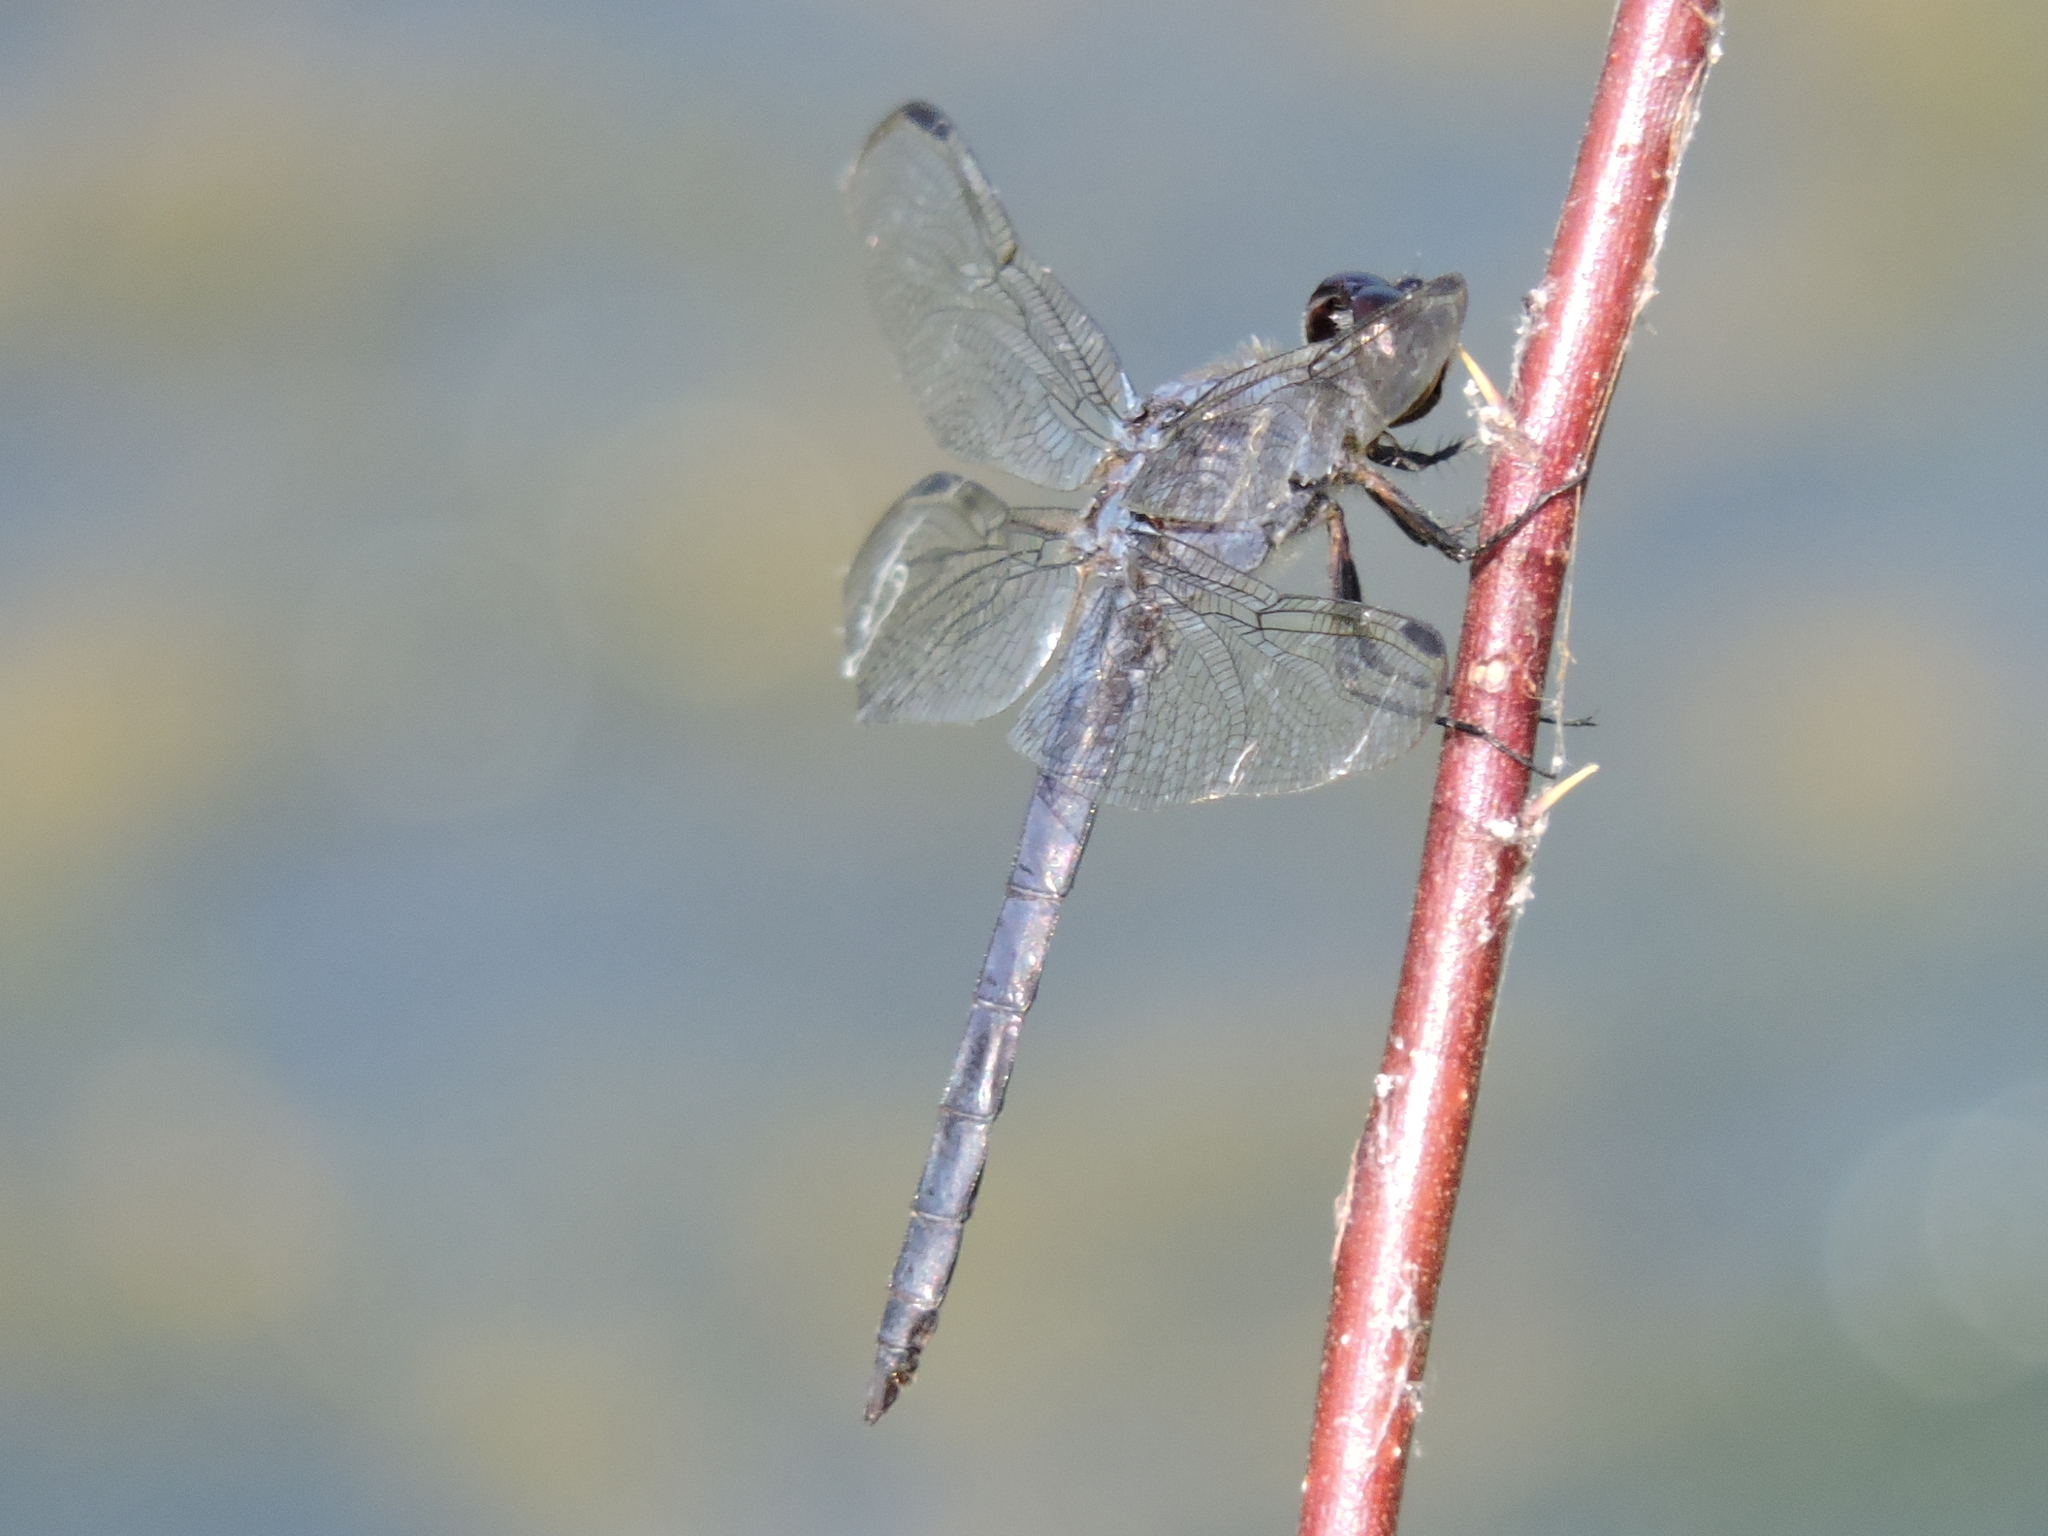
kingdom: Animalia
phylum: Arthropoda
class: Insecta
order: Odonata
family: Libellulidae
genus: Libellula
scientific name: Libellula incesta
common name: Slaty skimmer
